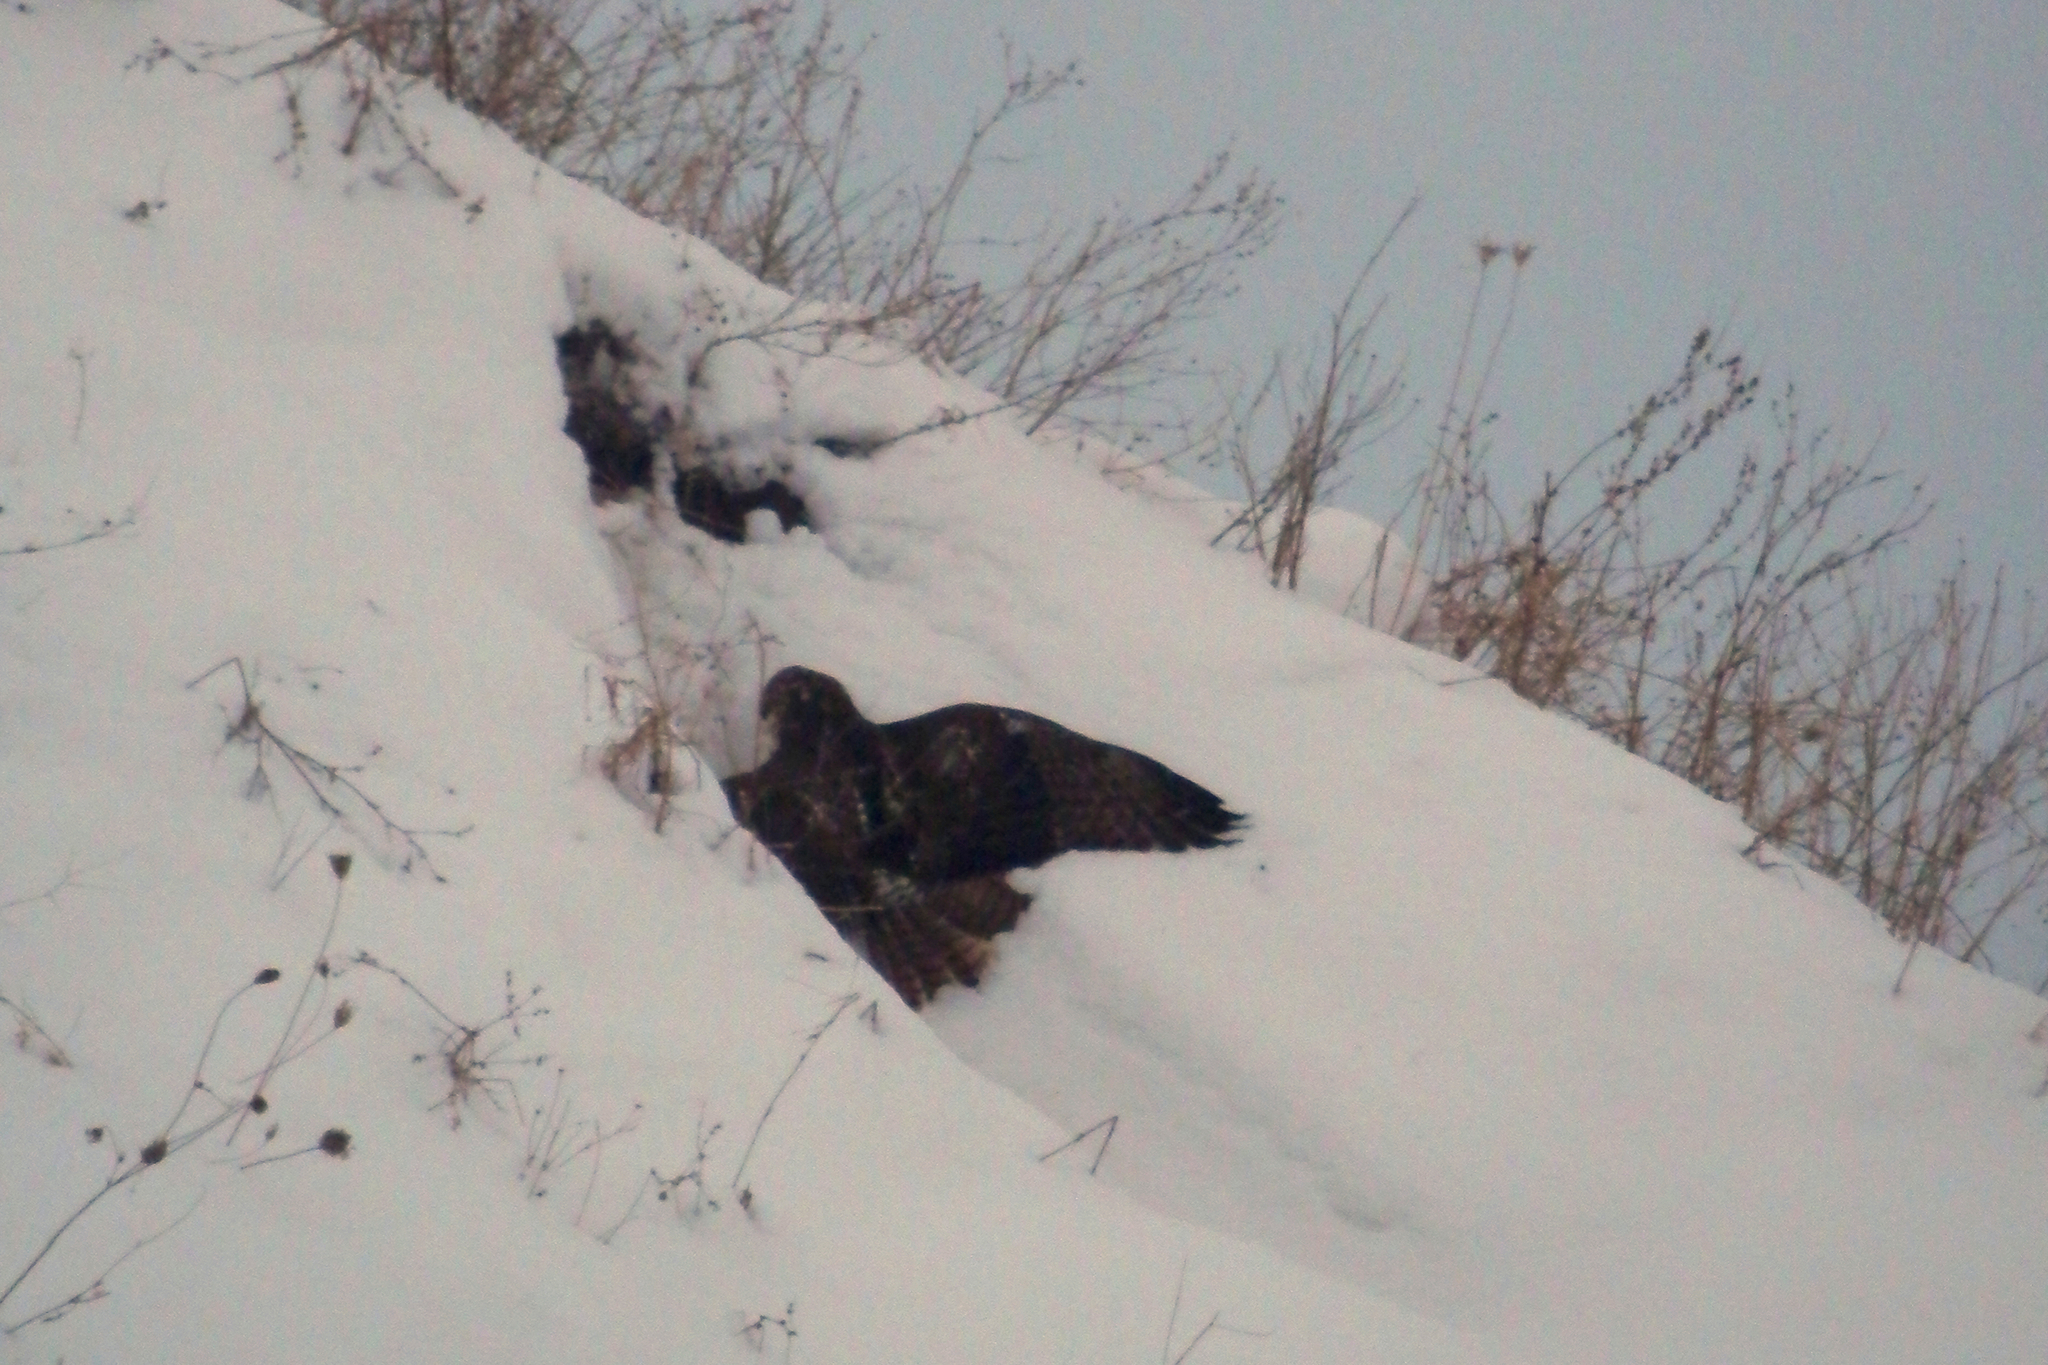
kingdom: Animalia
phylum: Chordata
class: Aves
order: Accipitriformes
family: Accipitridae
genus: Buteo
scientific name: Buteo jamaicensis
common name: Red-tailed hawk
